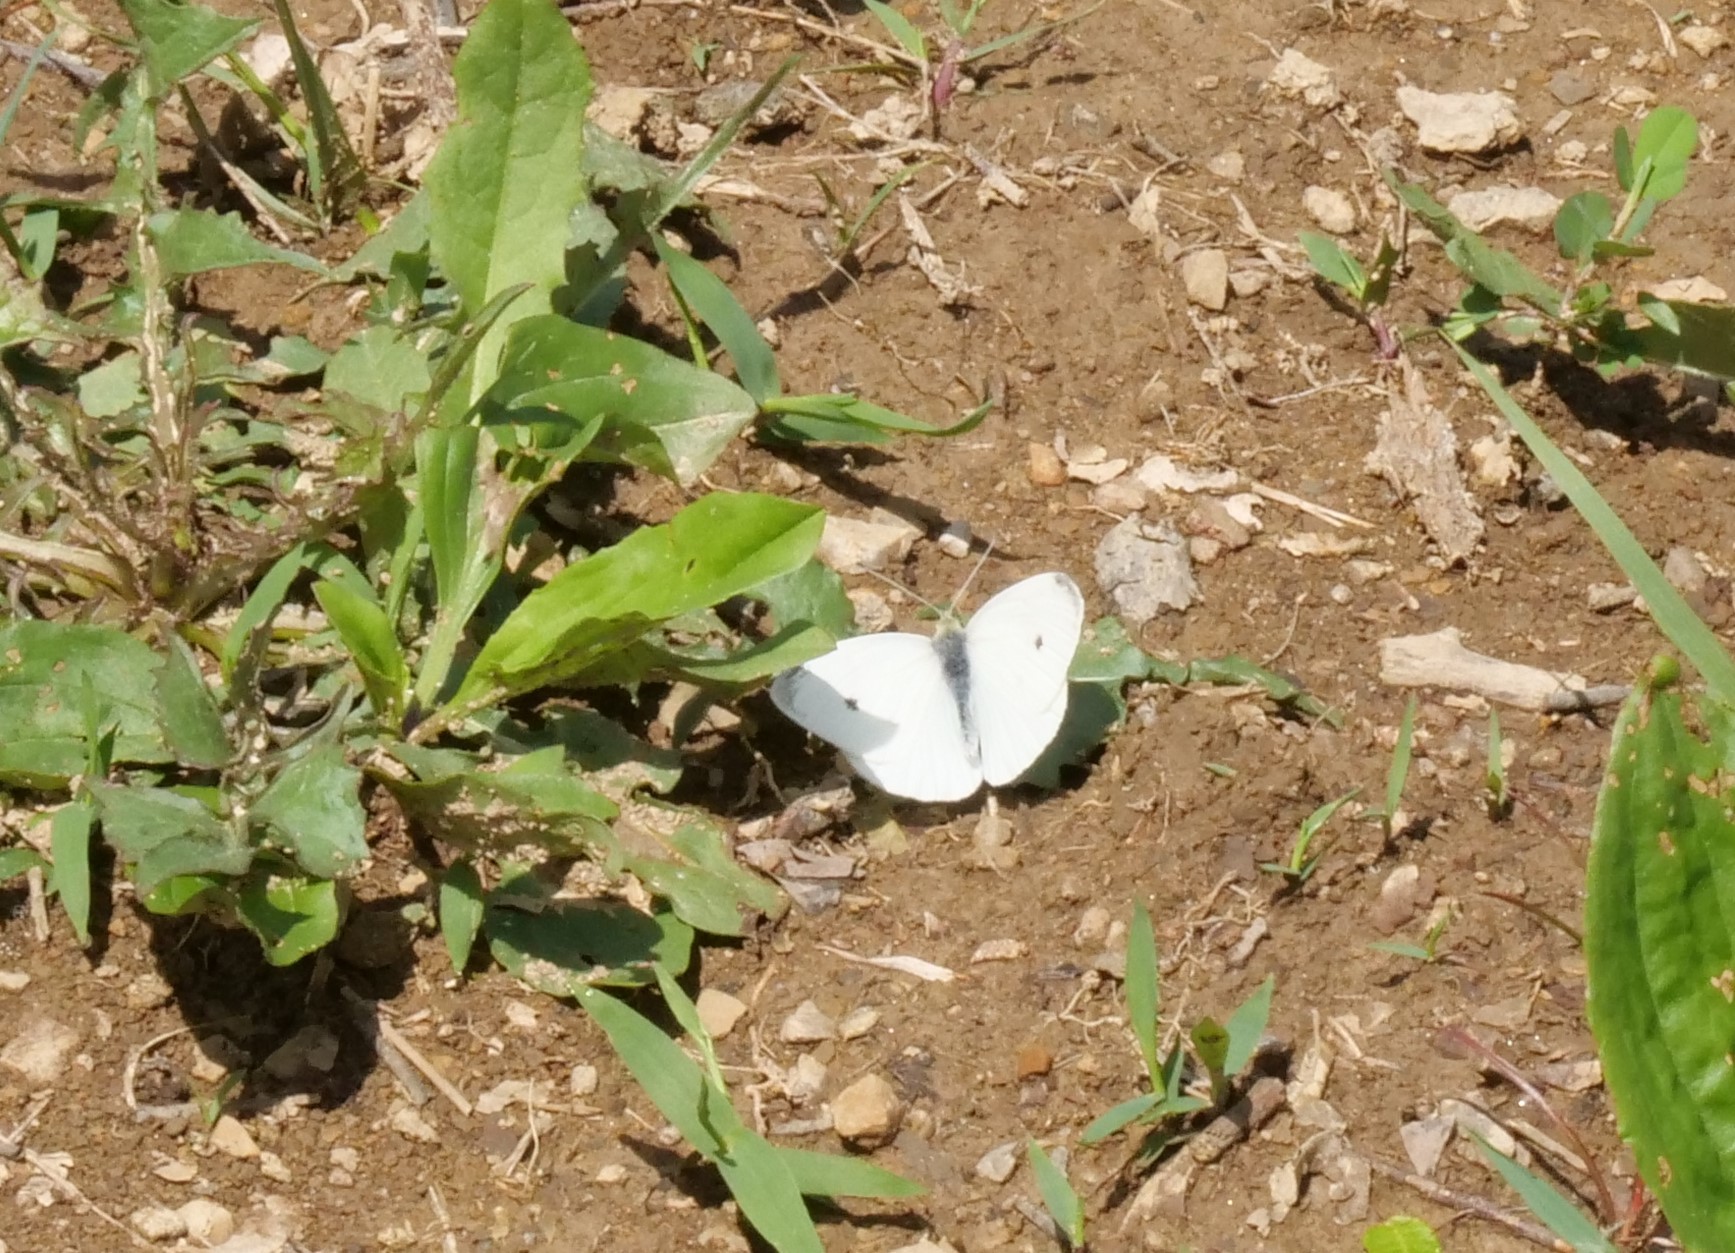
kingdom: Animalia
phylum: Arthropoda
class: Insecta
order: Lepidoptera
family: Pieridae
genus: Pieris
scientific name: Pieris rapae
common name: Small white
